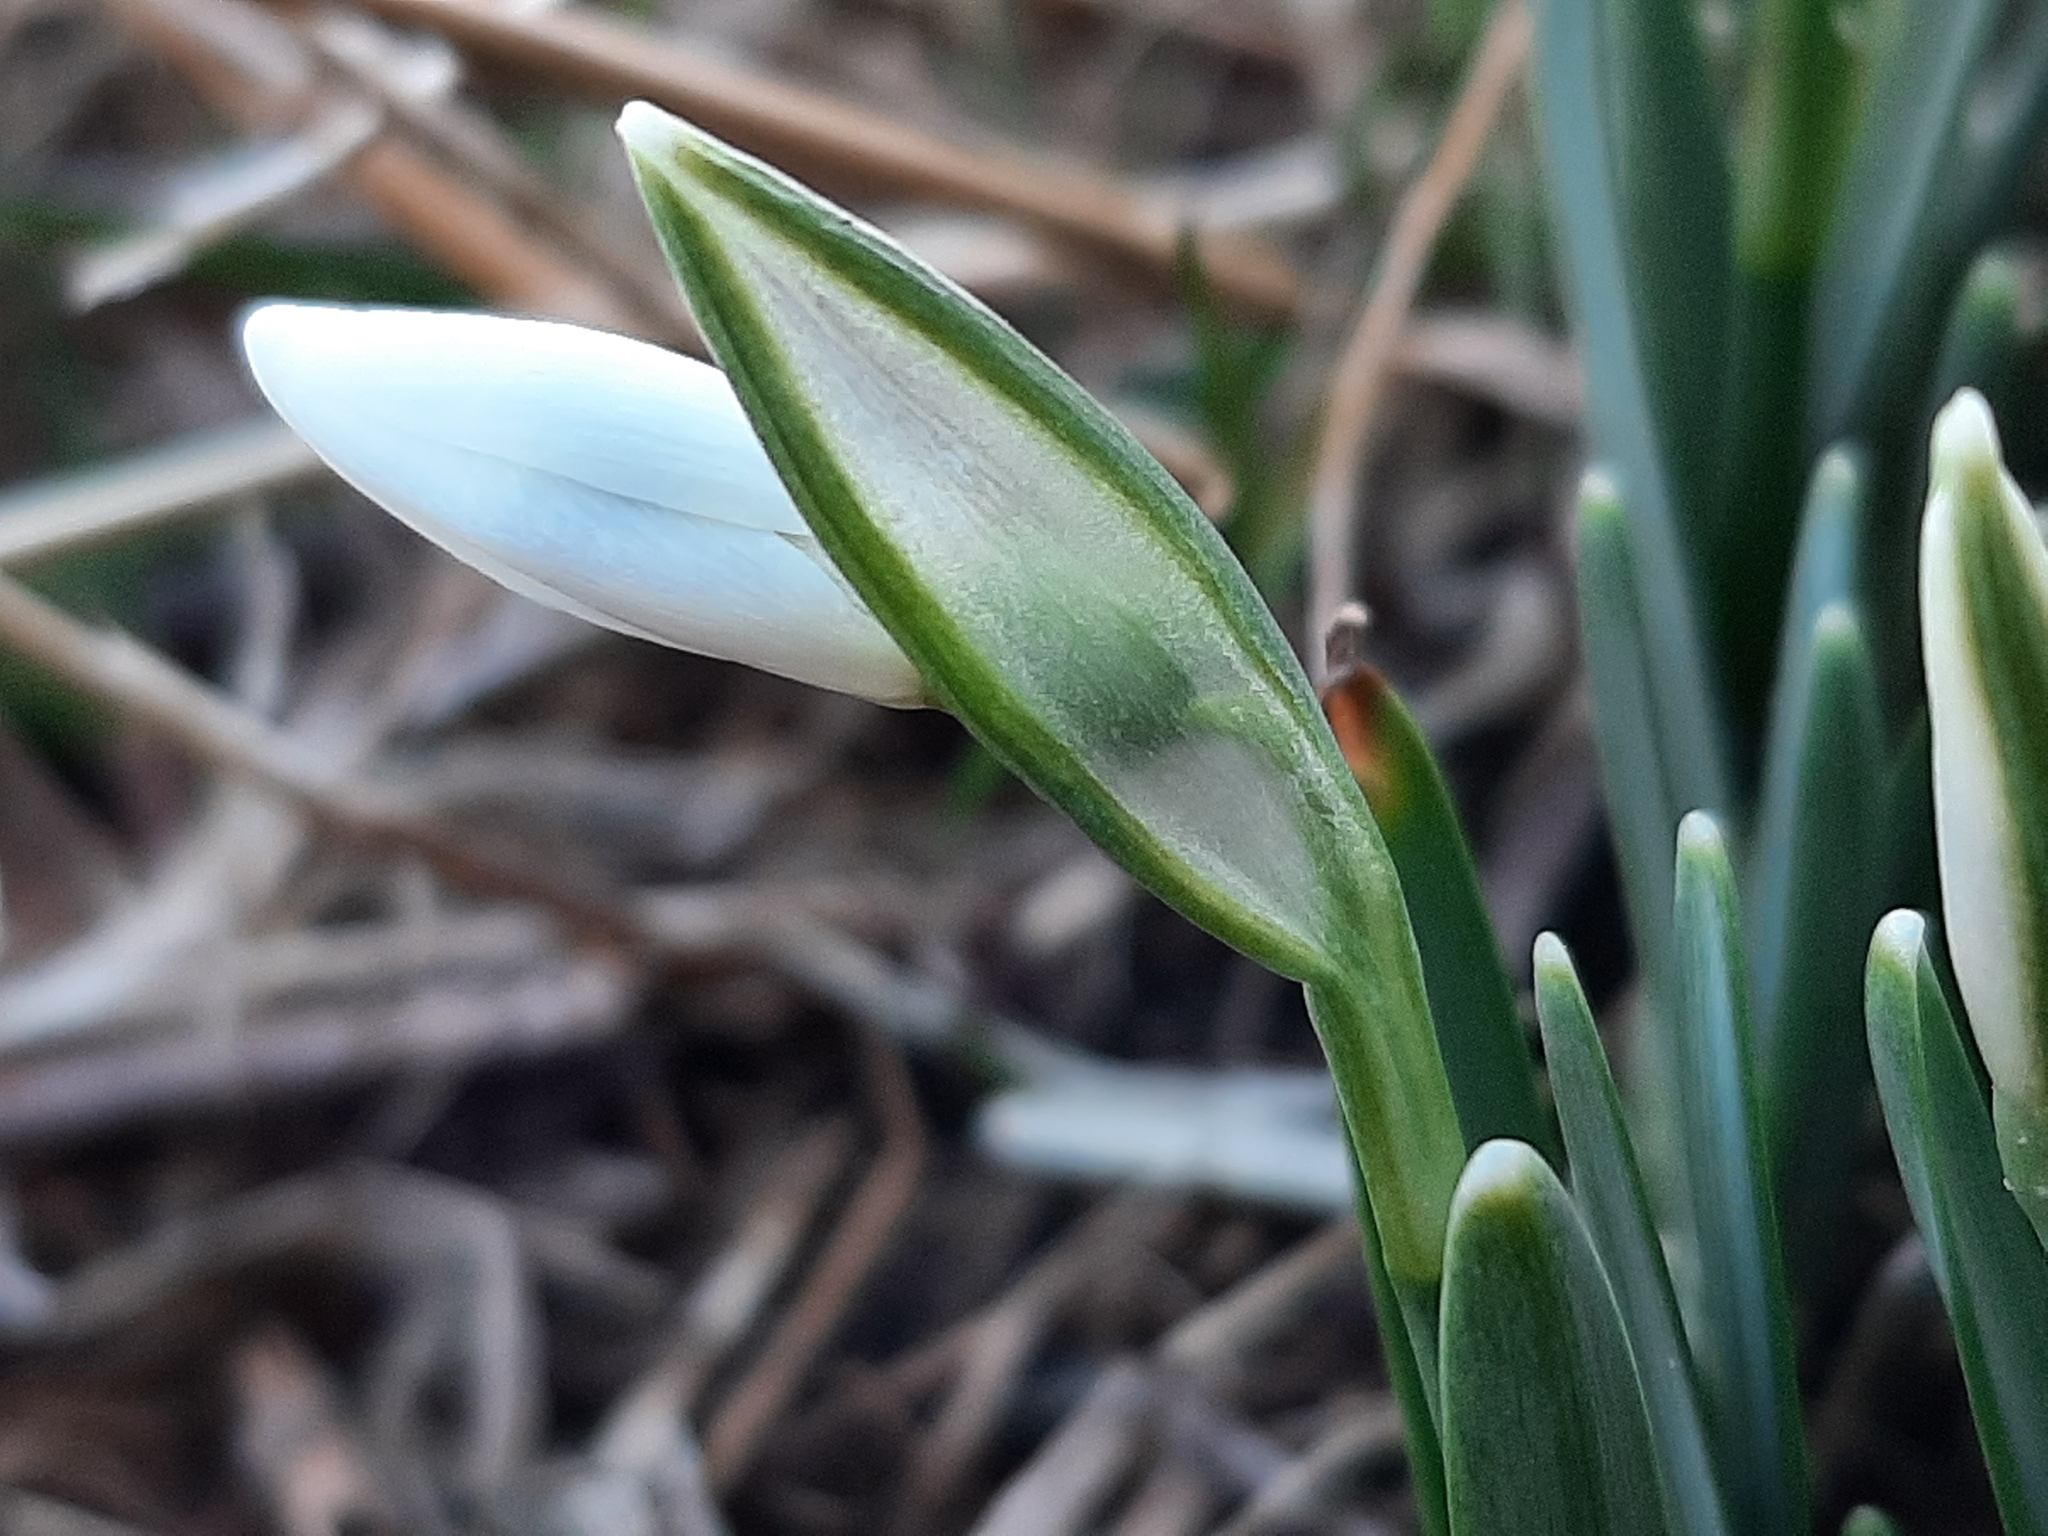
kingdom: Plantae
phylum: Tracheophyta
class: Liliopsida
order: Asparagales
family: Amaryllidaceae
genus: Galanthus
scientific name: Galanthus nivalis
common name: Snowdrop
